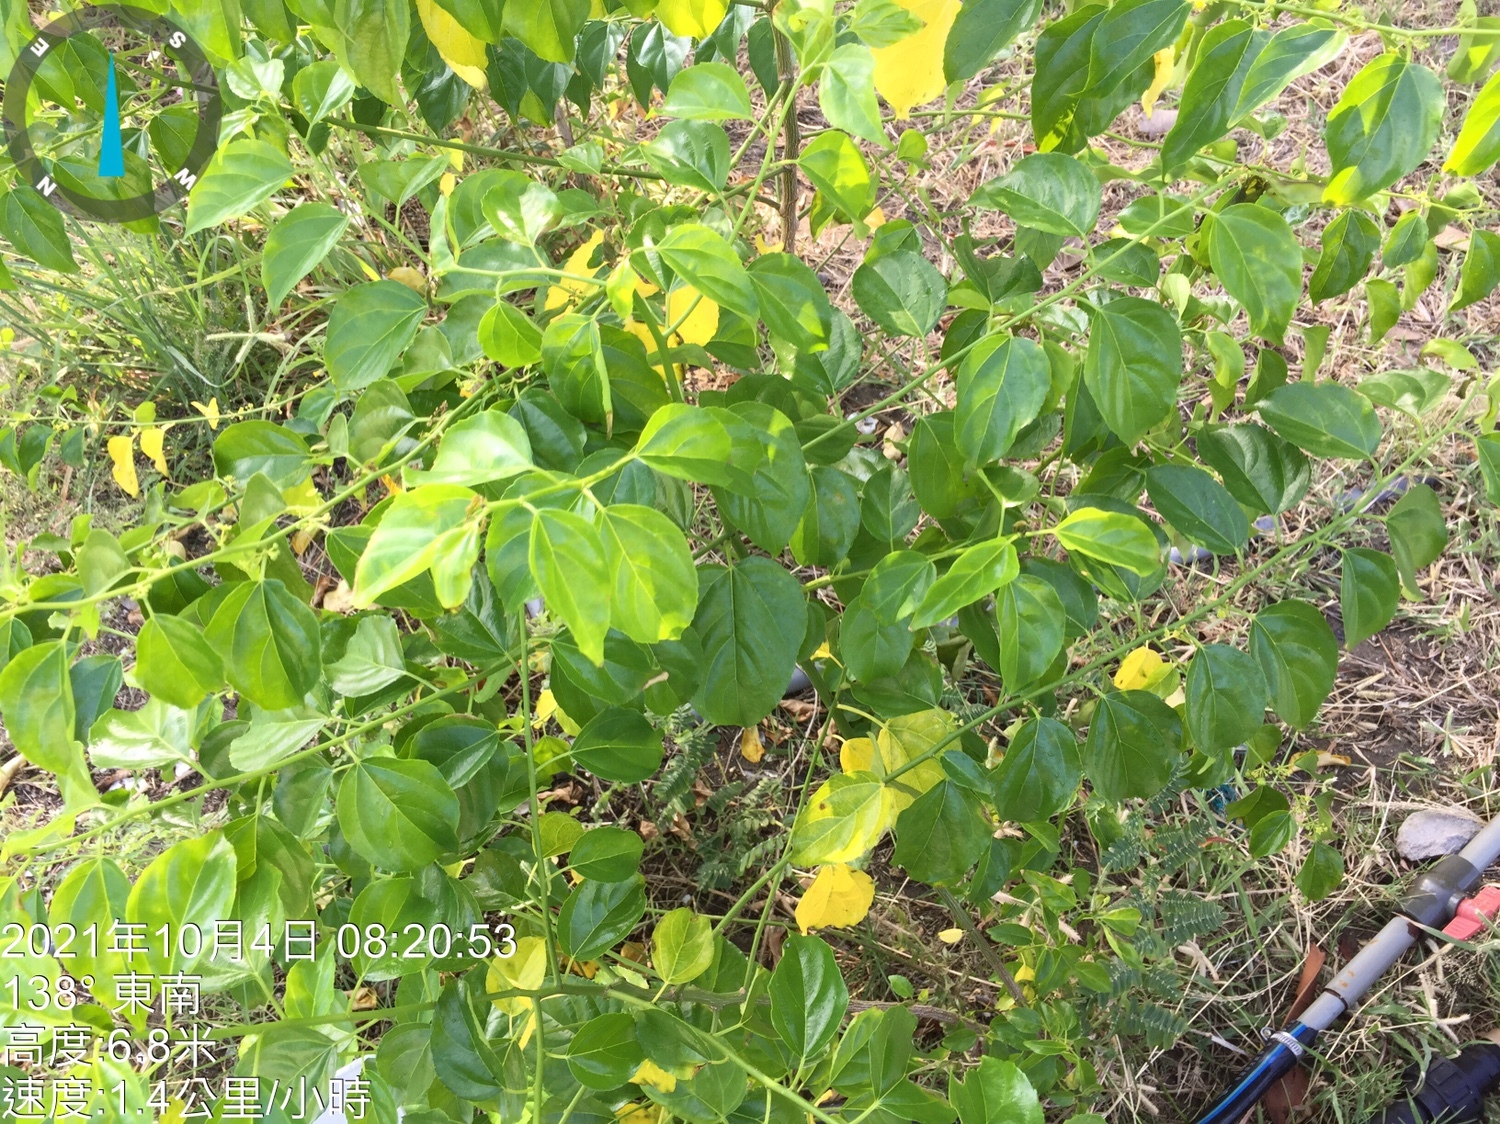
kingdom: Plantae
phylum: Tracheophyta
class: Magnoliopsida
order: Rosales
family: Rhamnaceae
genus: Colubrina
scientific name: Colubrina asiatica
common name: Asian nakedwood
